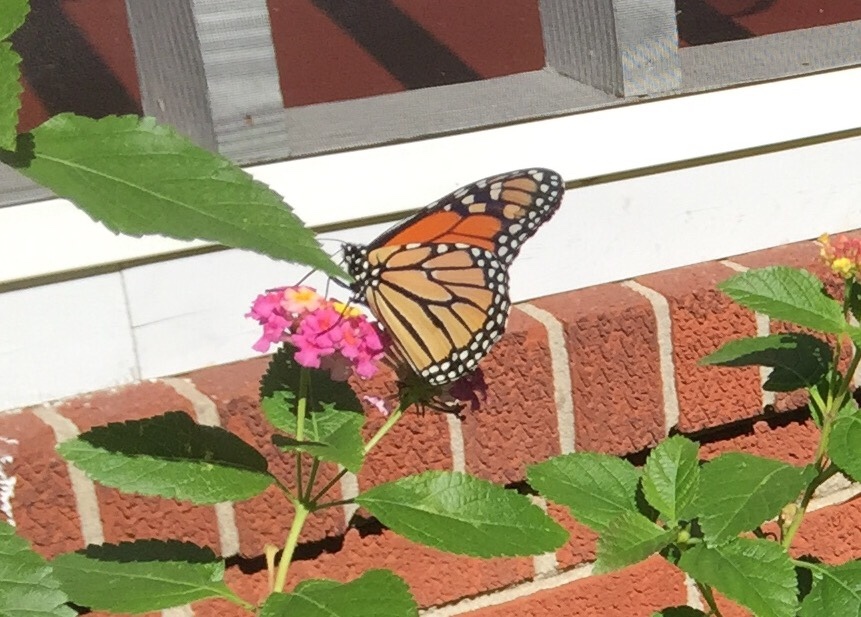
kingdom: Animalia
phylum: Arthropoda
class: Insecta
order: Lepidoptera
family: Nymphalidae
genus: Danaus
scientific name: Danaus plexippus
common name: Monarch
